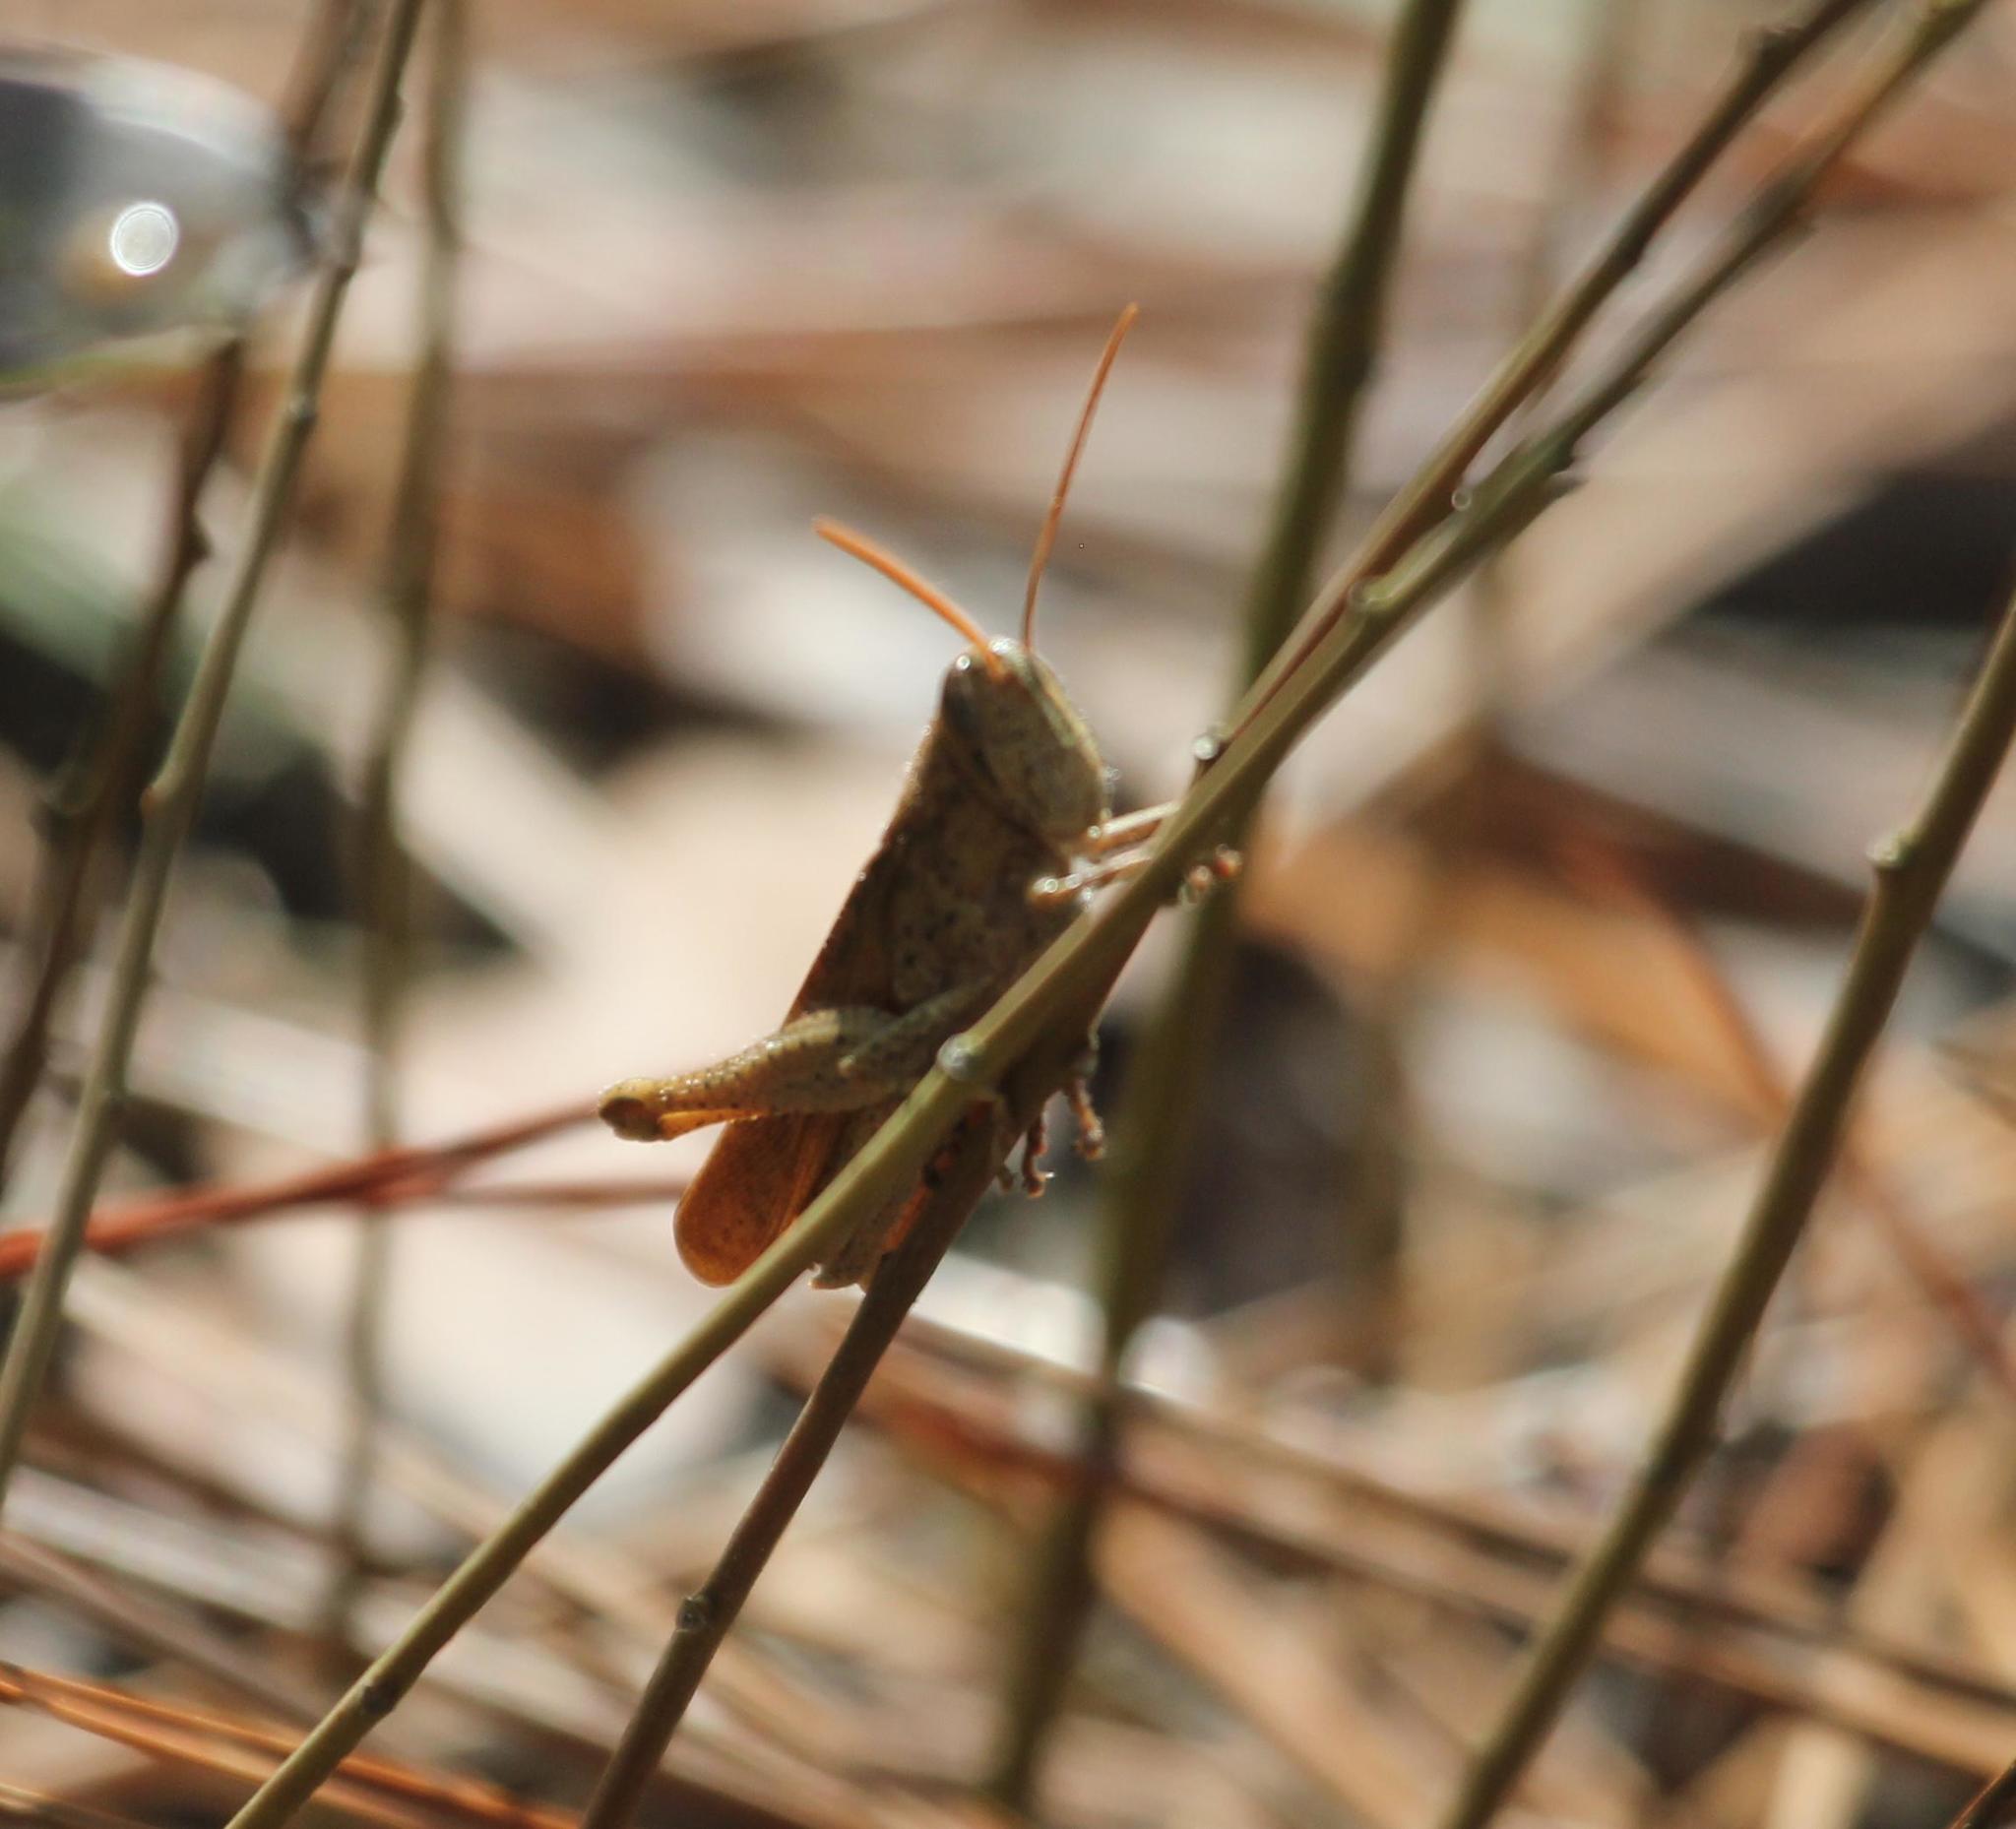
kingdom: Animalia
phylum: Arthropoda
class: Insecta
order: Orthoptera
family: Acrididae
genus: Schistocerca
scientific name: Schistocerca
